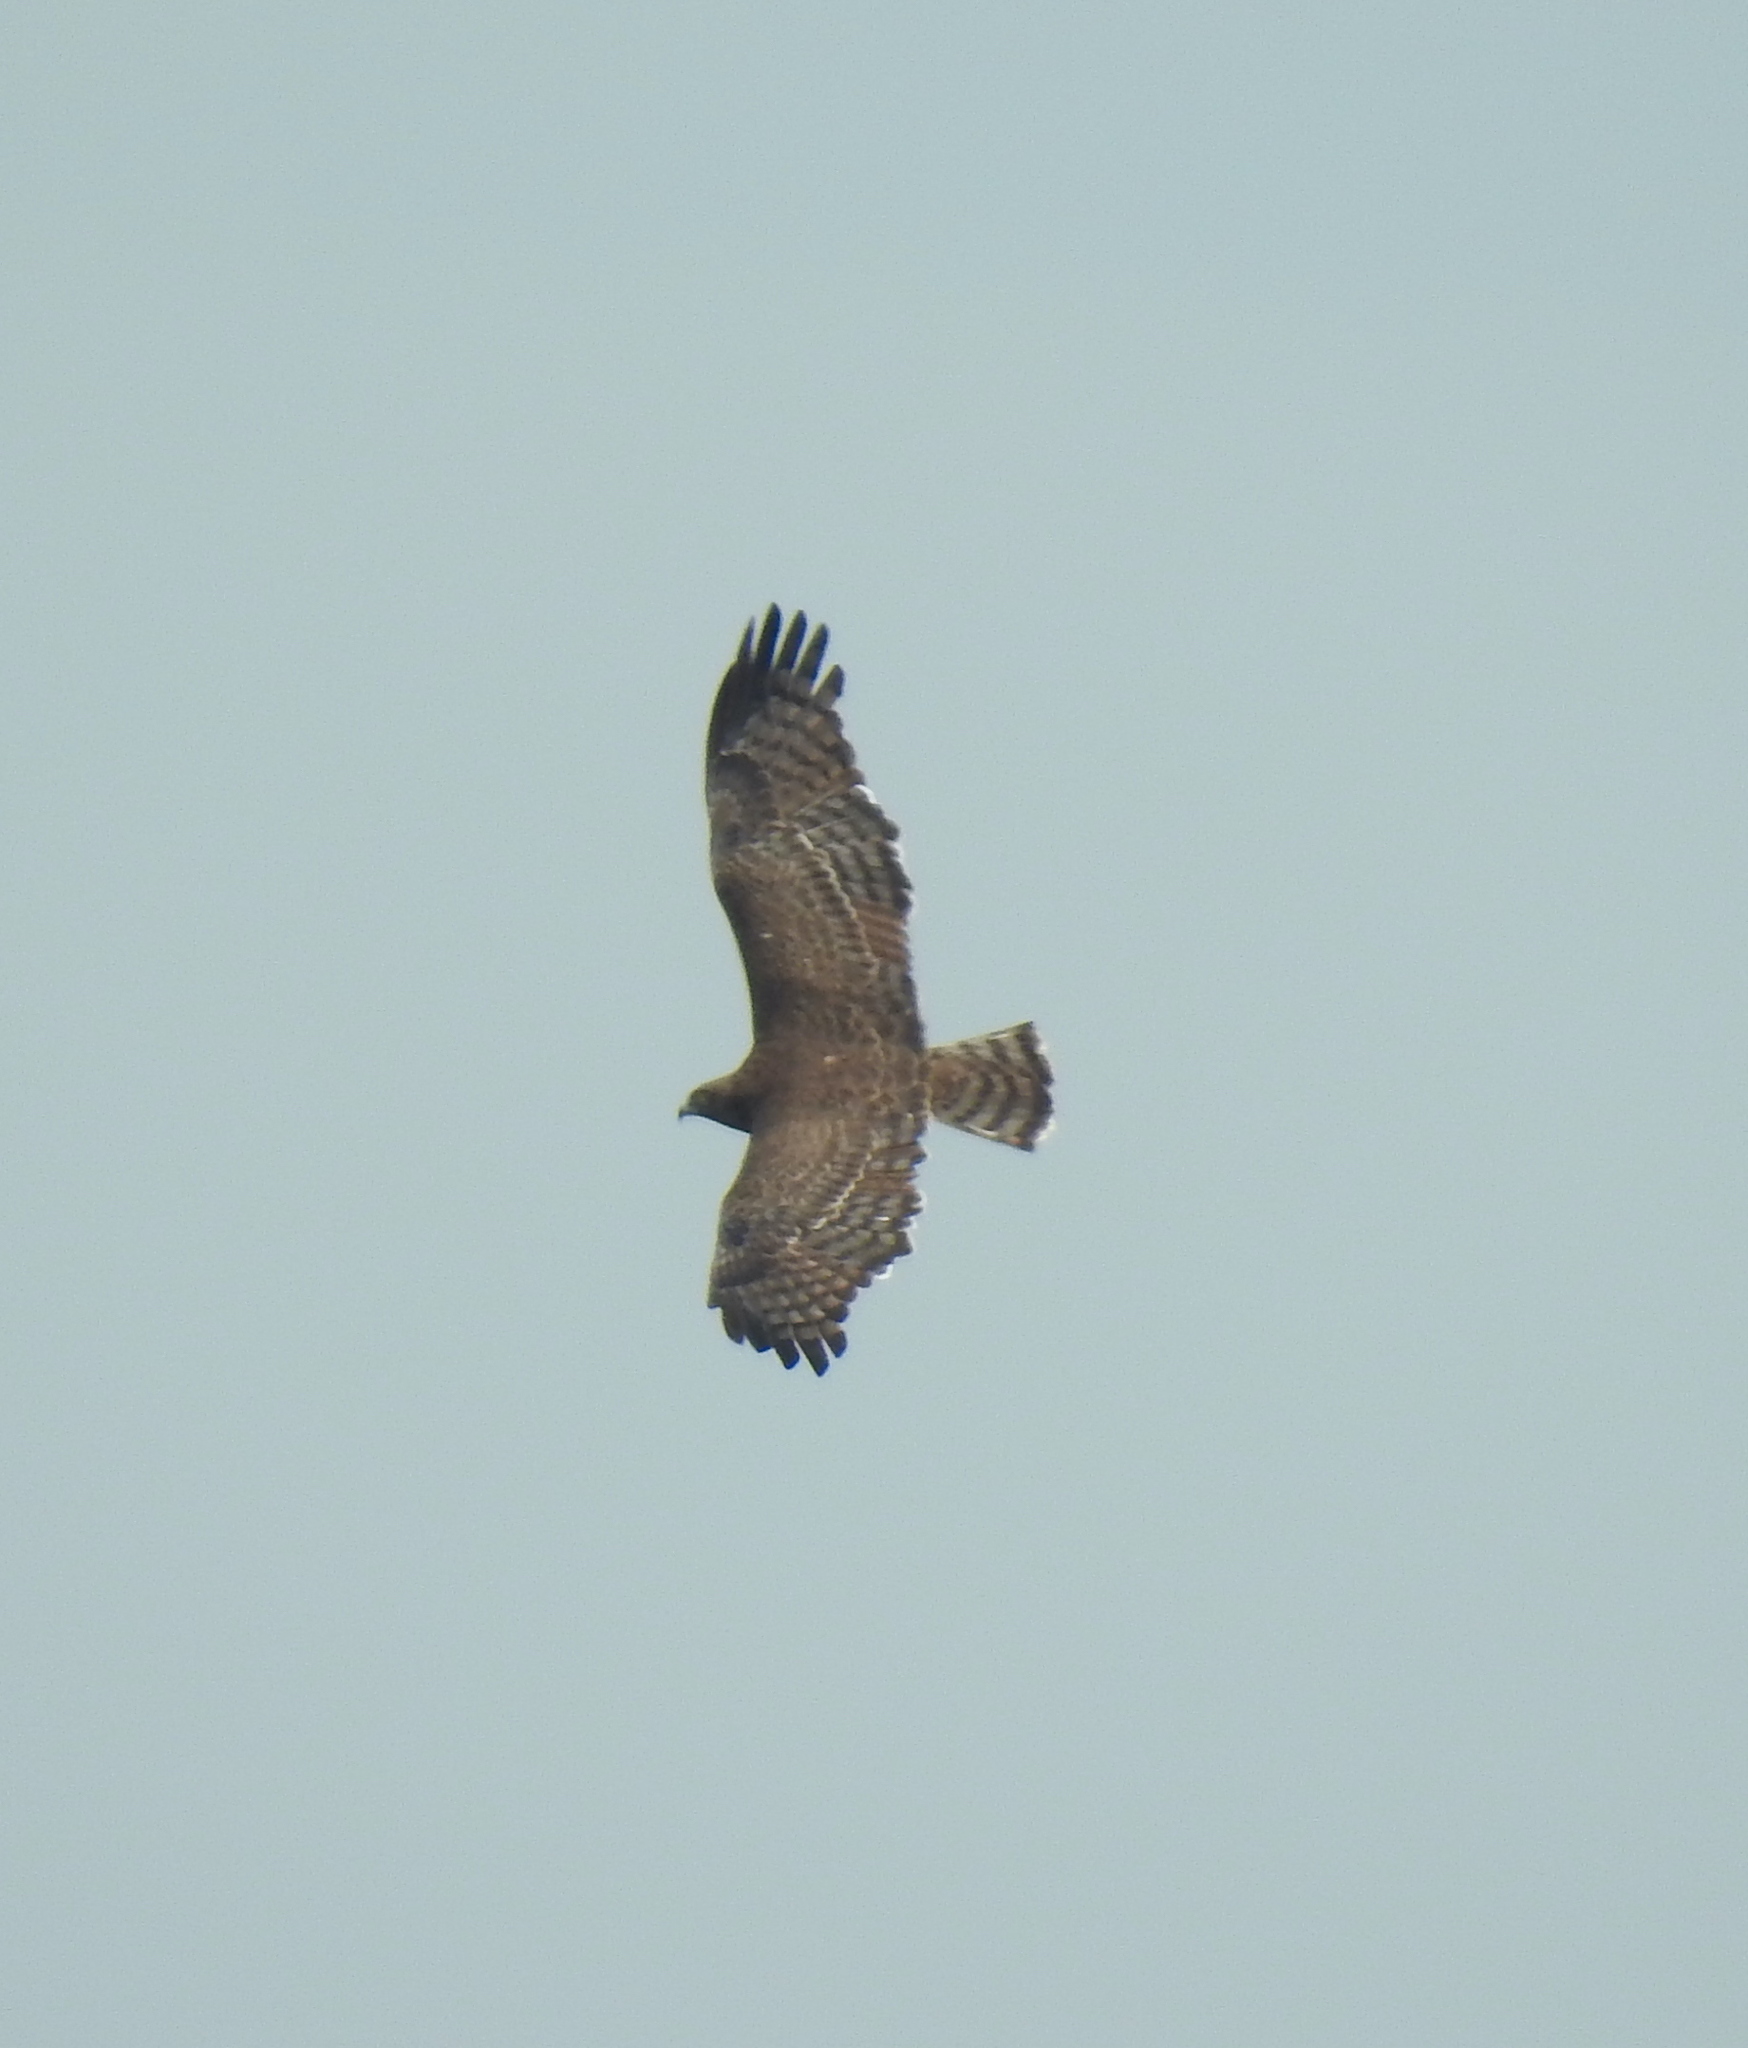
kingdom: Animalia
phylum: Chordata
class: Aves
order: Accipitriformes
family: Accipitridae
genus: Circaetus
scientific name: Circaetus pectoralis
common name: Black-chested snake eagle
